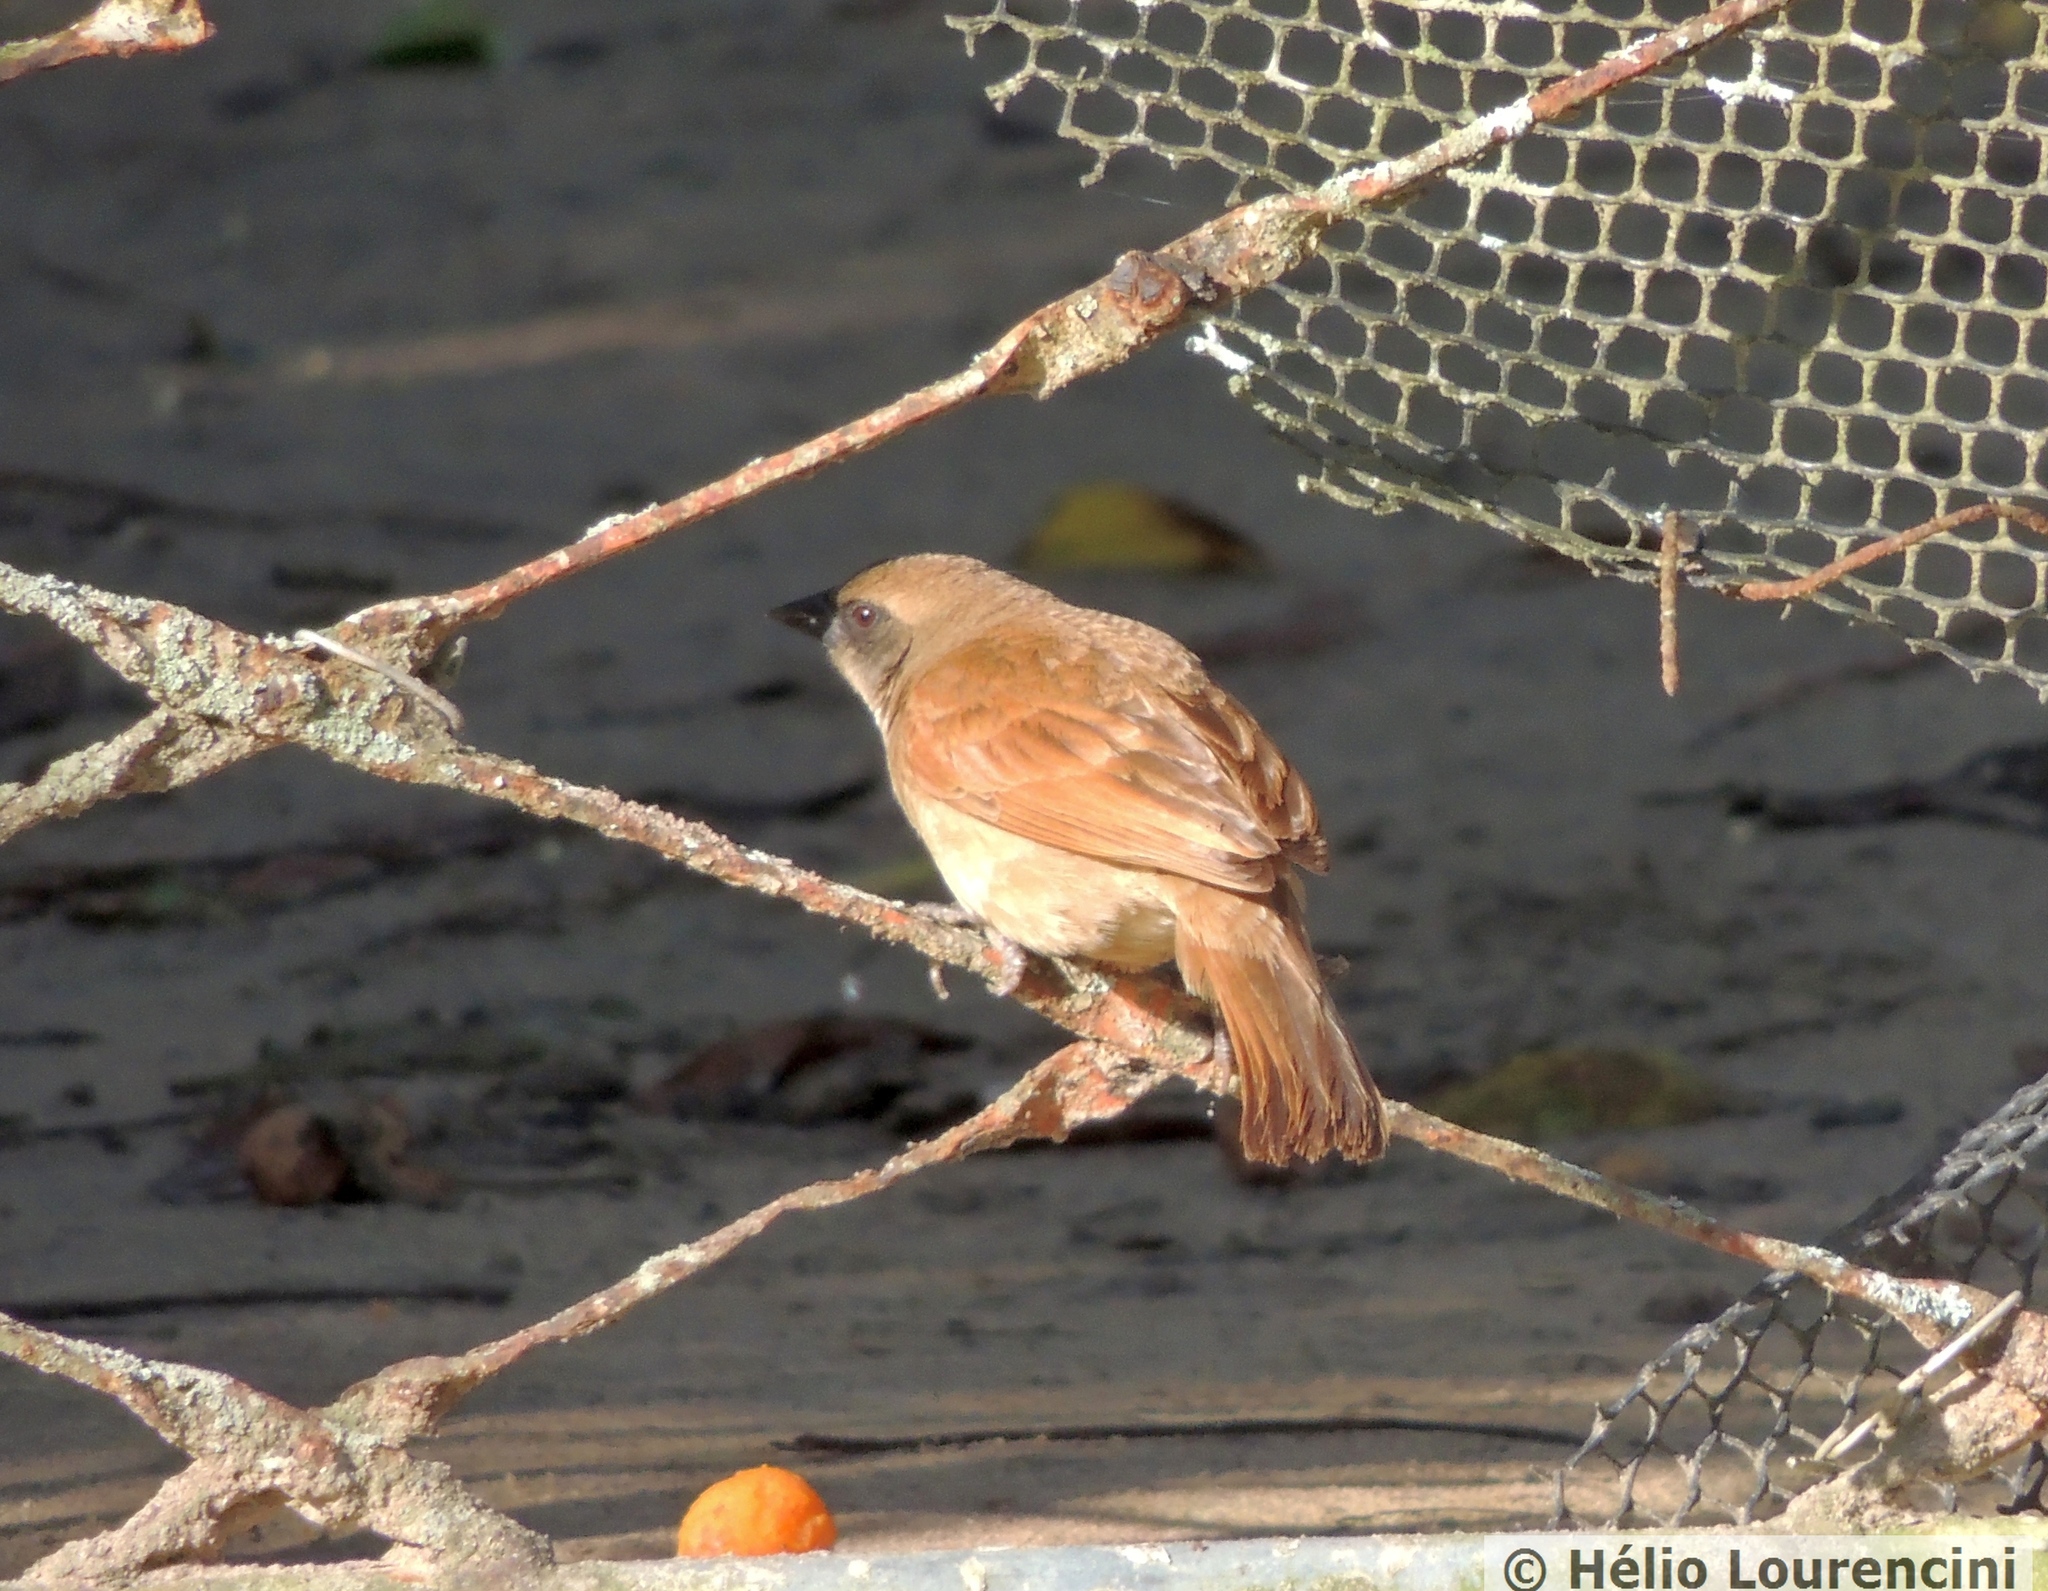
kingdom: Animalia
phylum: Chordata
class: Aves
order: Passeriformes
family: Icteridae
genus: Agelaioides
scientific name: Agelaioides badius
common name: Baywing
